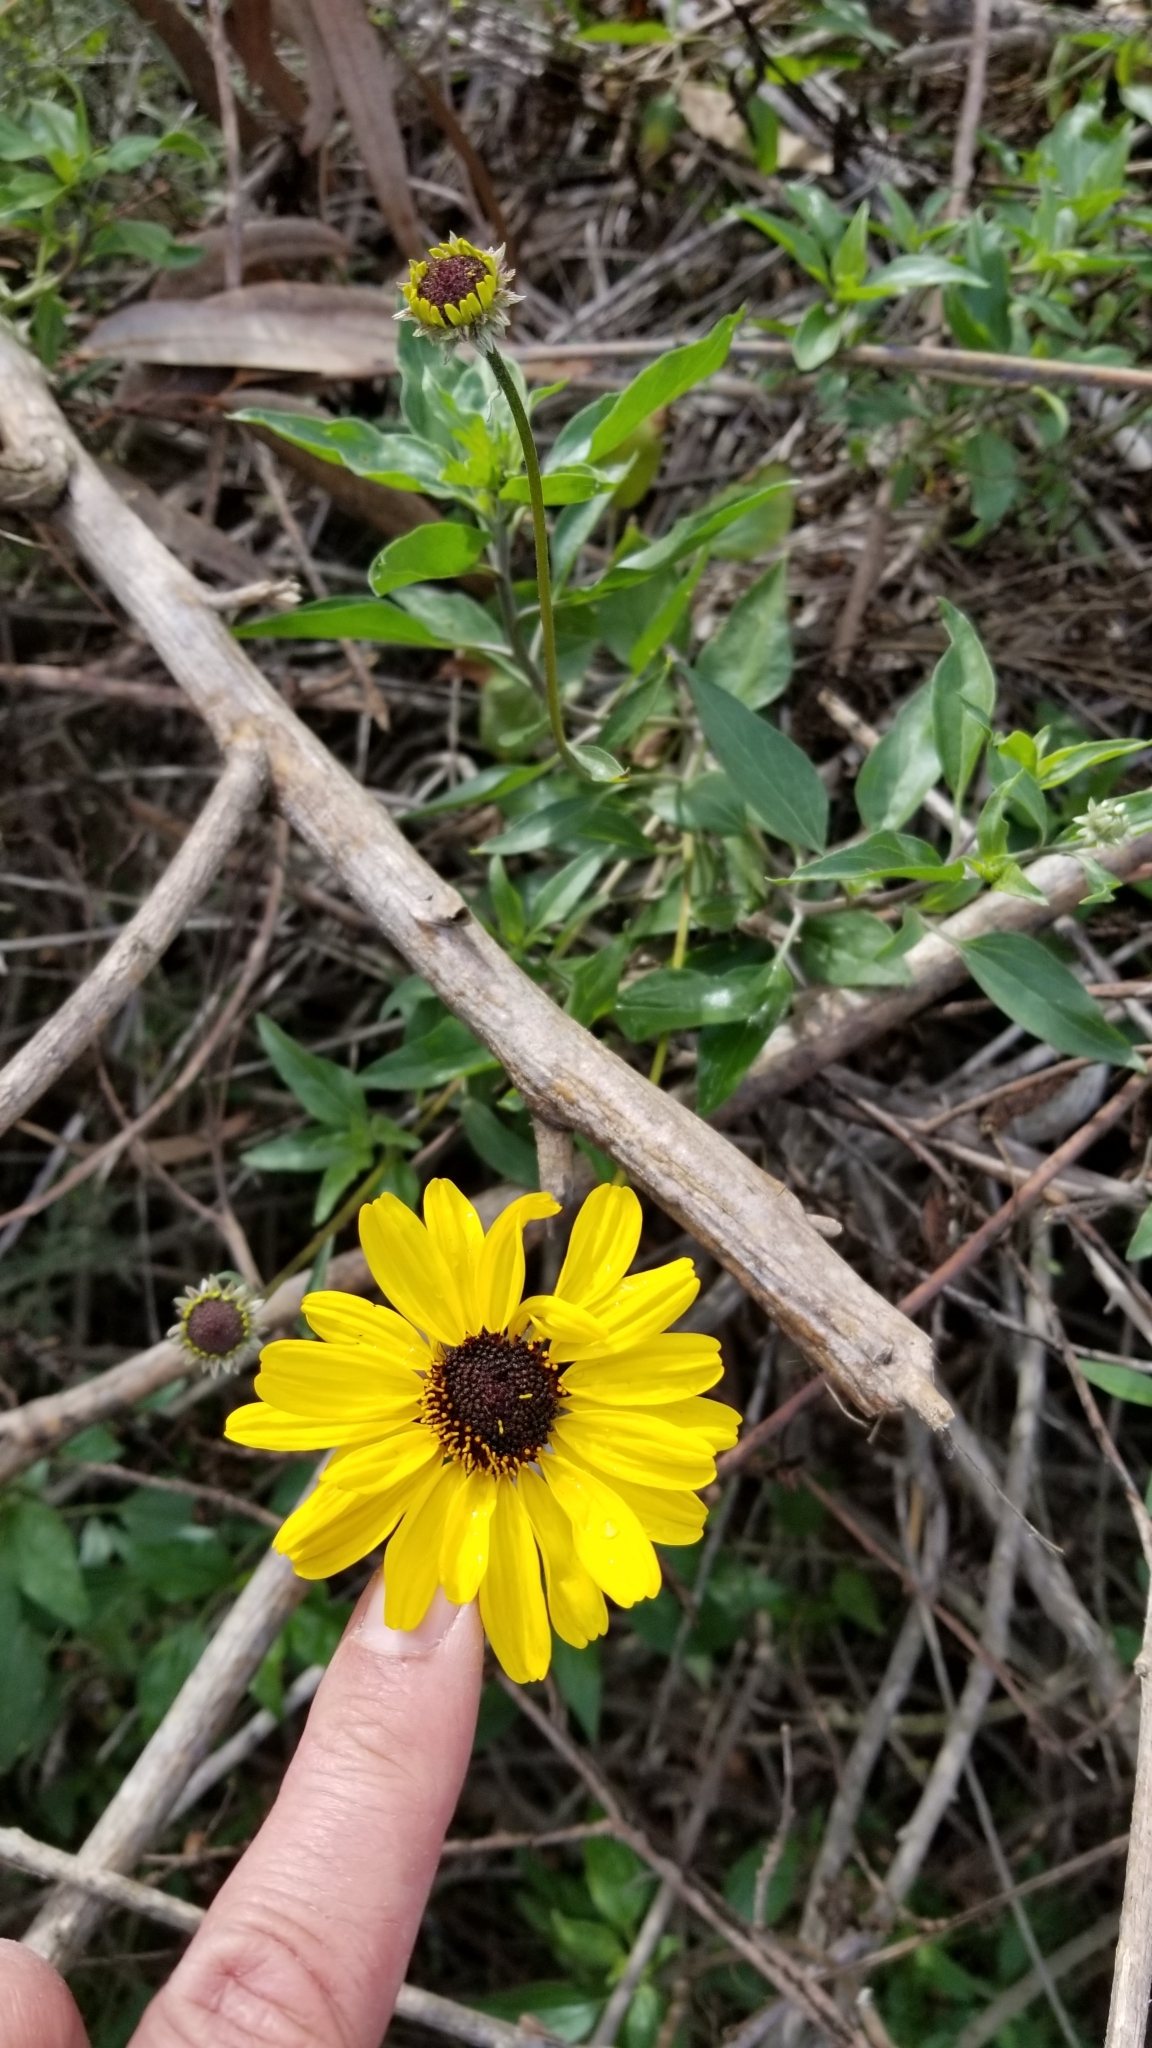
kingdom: Plantae
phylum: Tracheophyta
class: Magnoliopsida
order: Asterales
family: Asteraceae
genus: Encelia
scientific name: Encelia californica
